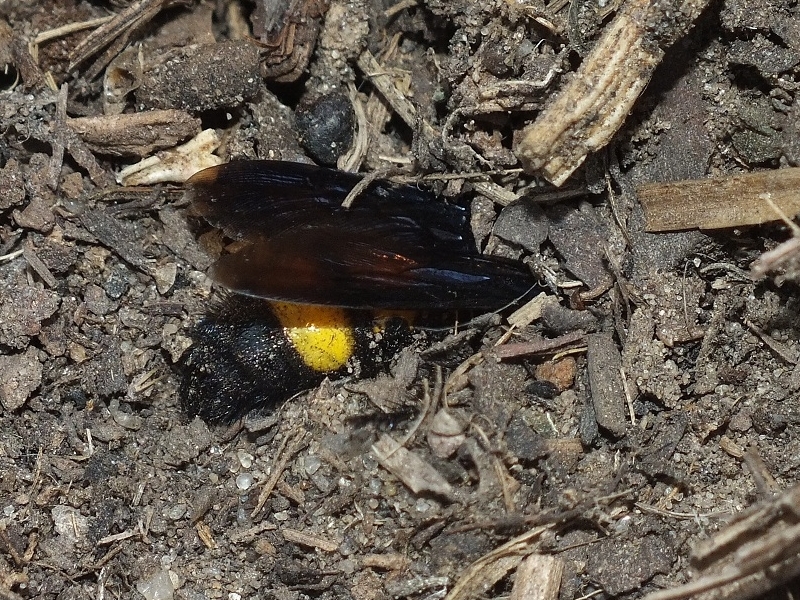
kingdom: Animalia
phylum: Arthropoda
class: Insecta
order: Hymenoptera
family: Scoliidae
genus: Scolia
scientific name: Scolia hirta
